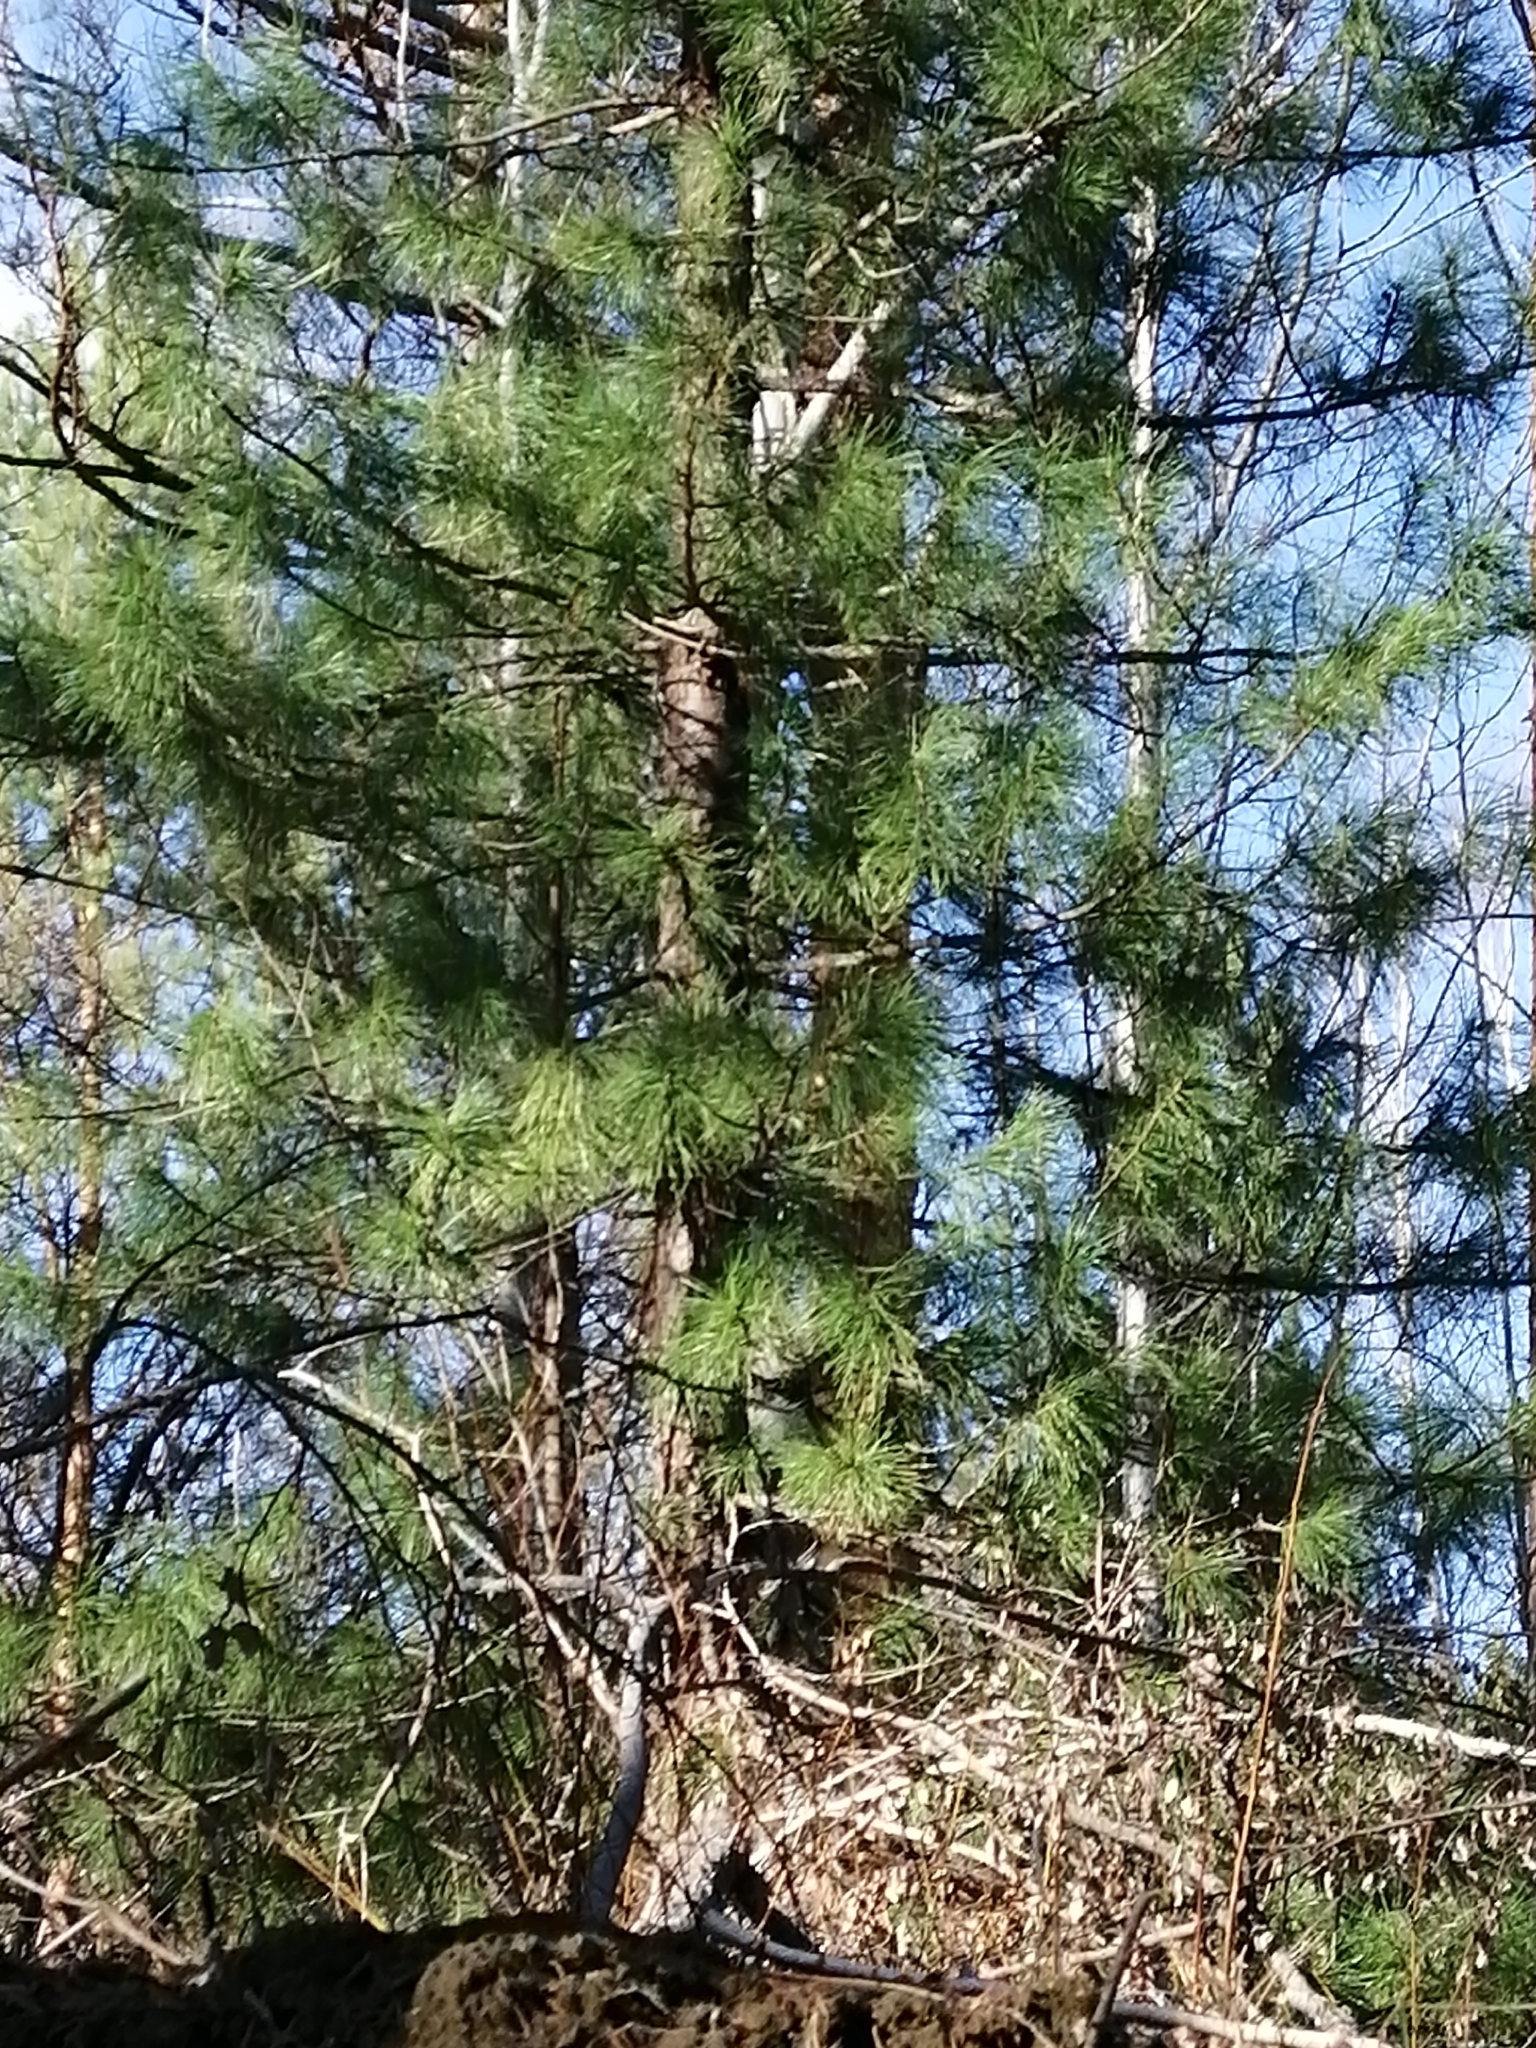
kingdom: Plantae
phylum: Tracheophyta
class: Pinopsida
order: Pinales
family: Pinaceae
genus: Pinus
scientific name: Pinus sibirica
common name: Siberian pine
